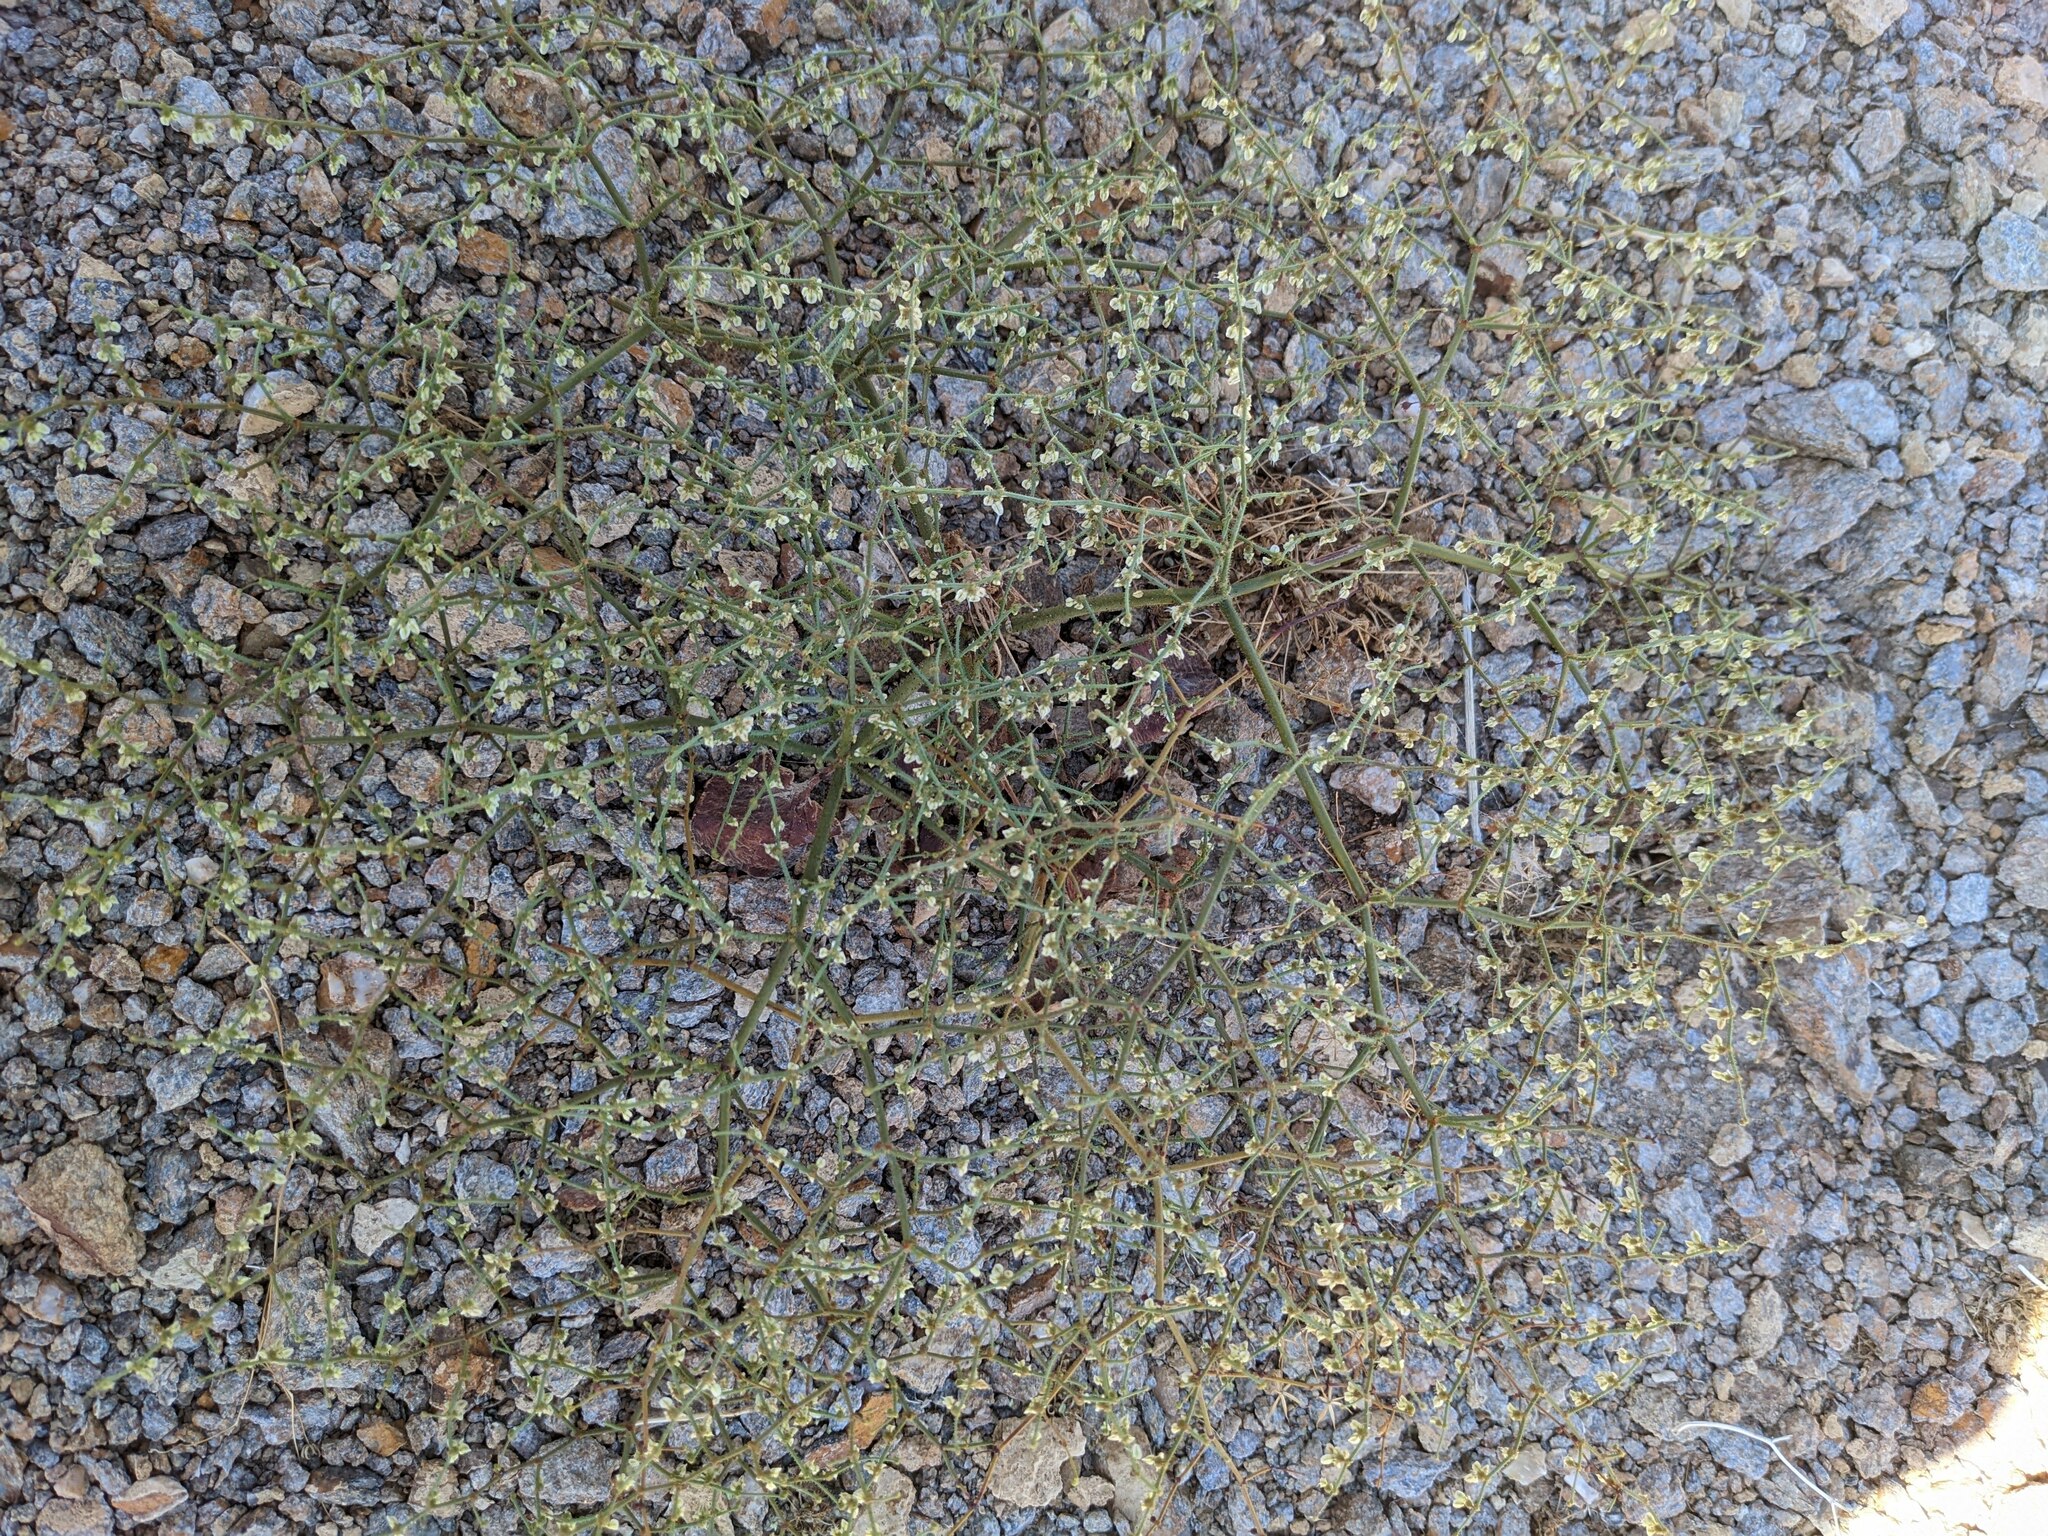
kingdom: Plantae
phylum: Tracheophyta
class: Magnoliopsida
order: Caryophyllales
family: Polygonaceae
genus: Eriogonum
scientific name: Eriogonum brachypodum
